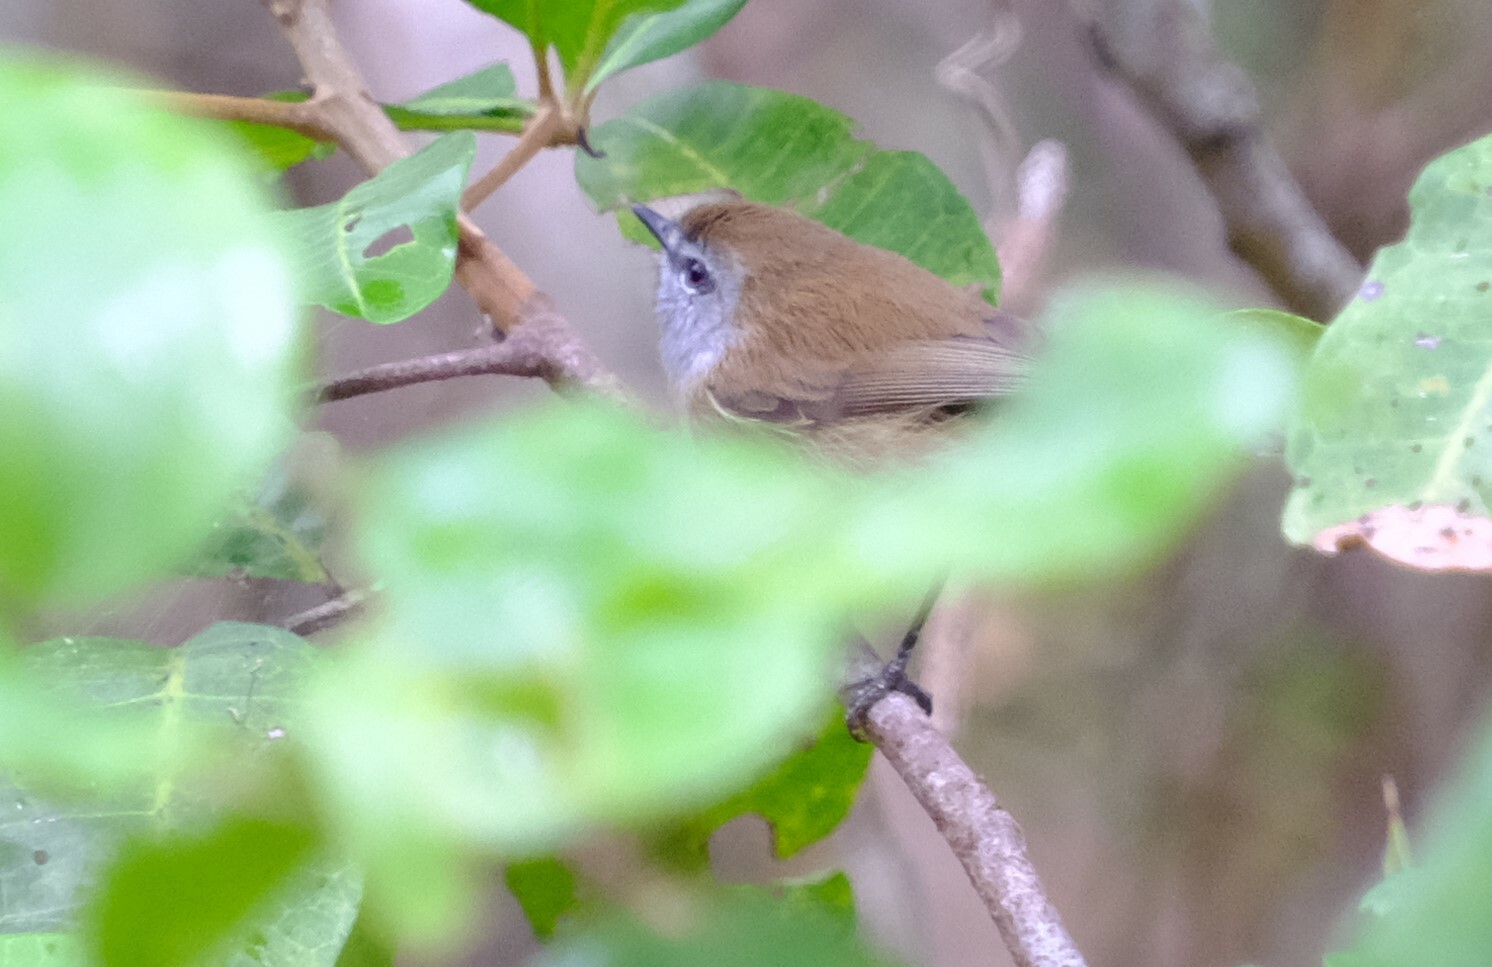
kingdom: Animalia
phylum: Chordata
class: Aves
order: Passeriformes
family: Acanthizidae
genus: Gerygone
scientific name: Gerygone mouki
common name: Brown gerygone
